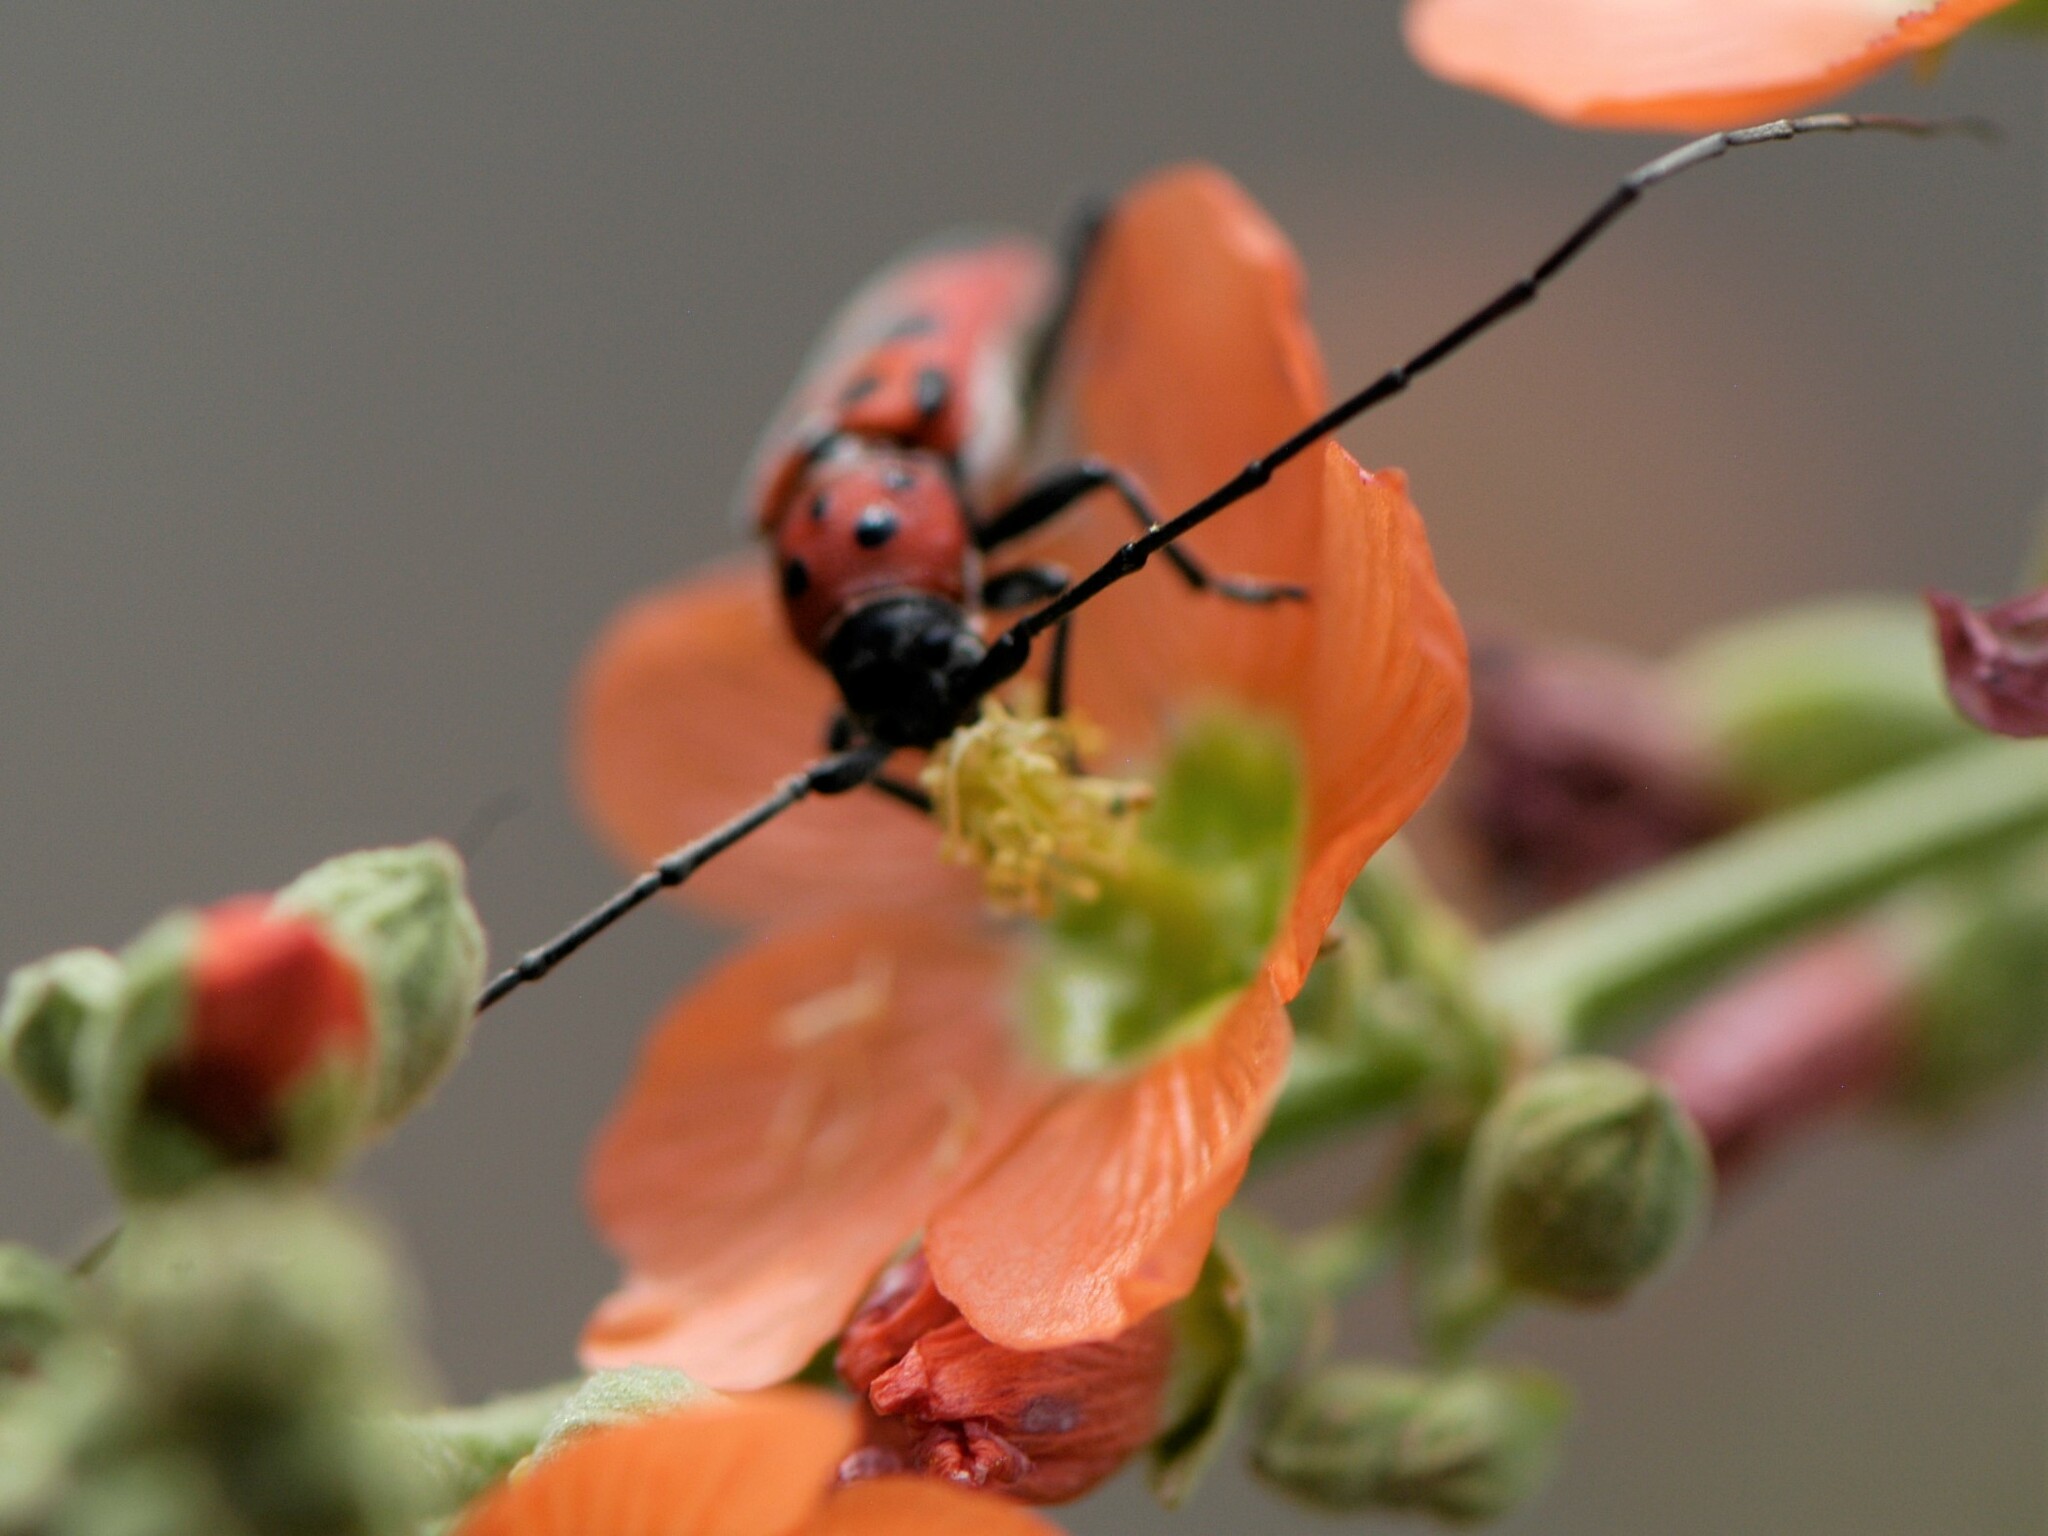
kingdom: Animalia
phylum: Arthropoda
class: Insecta
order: Coleoptera
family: Cerambycidae
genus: Tylosis
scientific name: Tylosis maculatus
